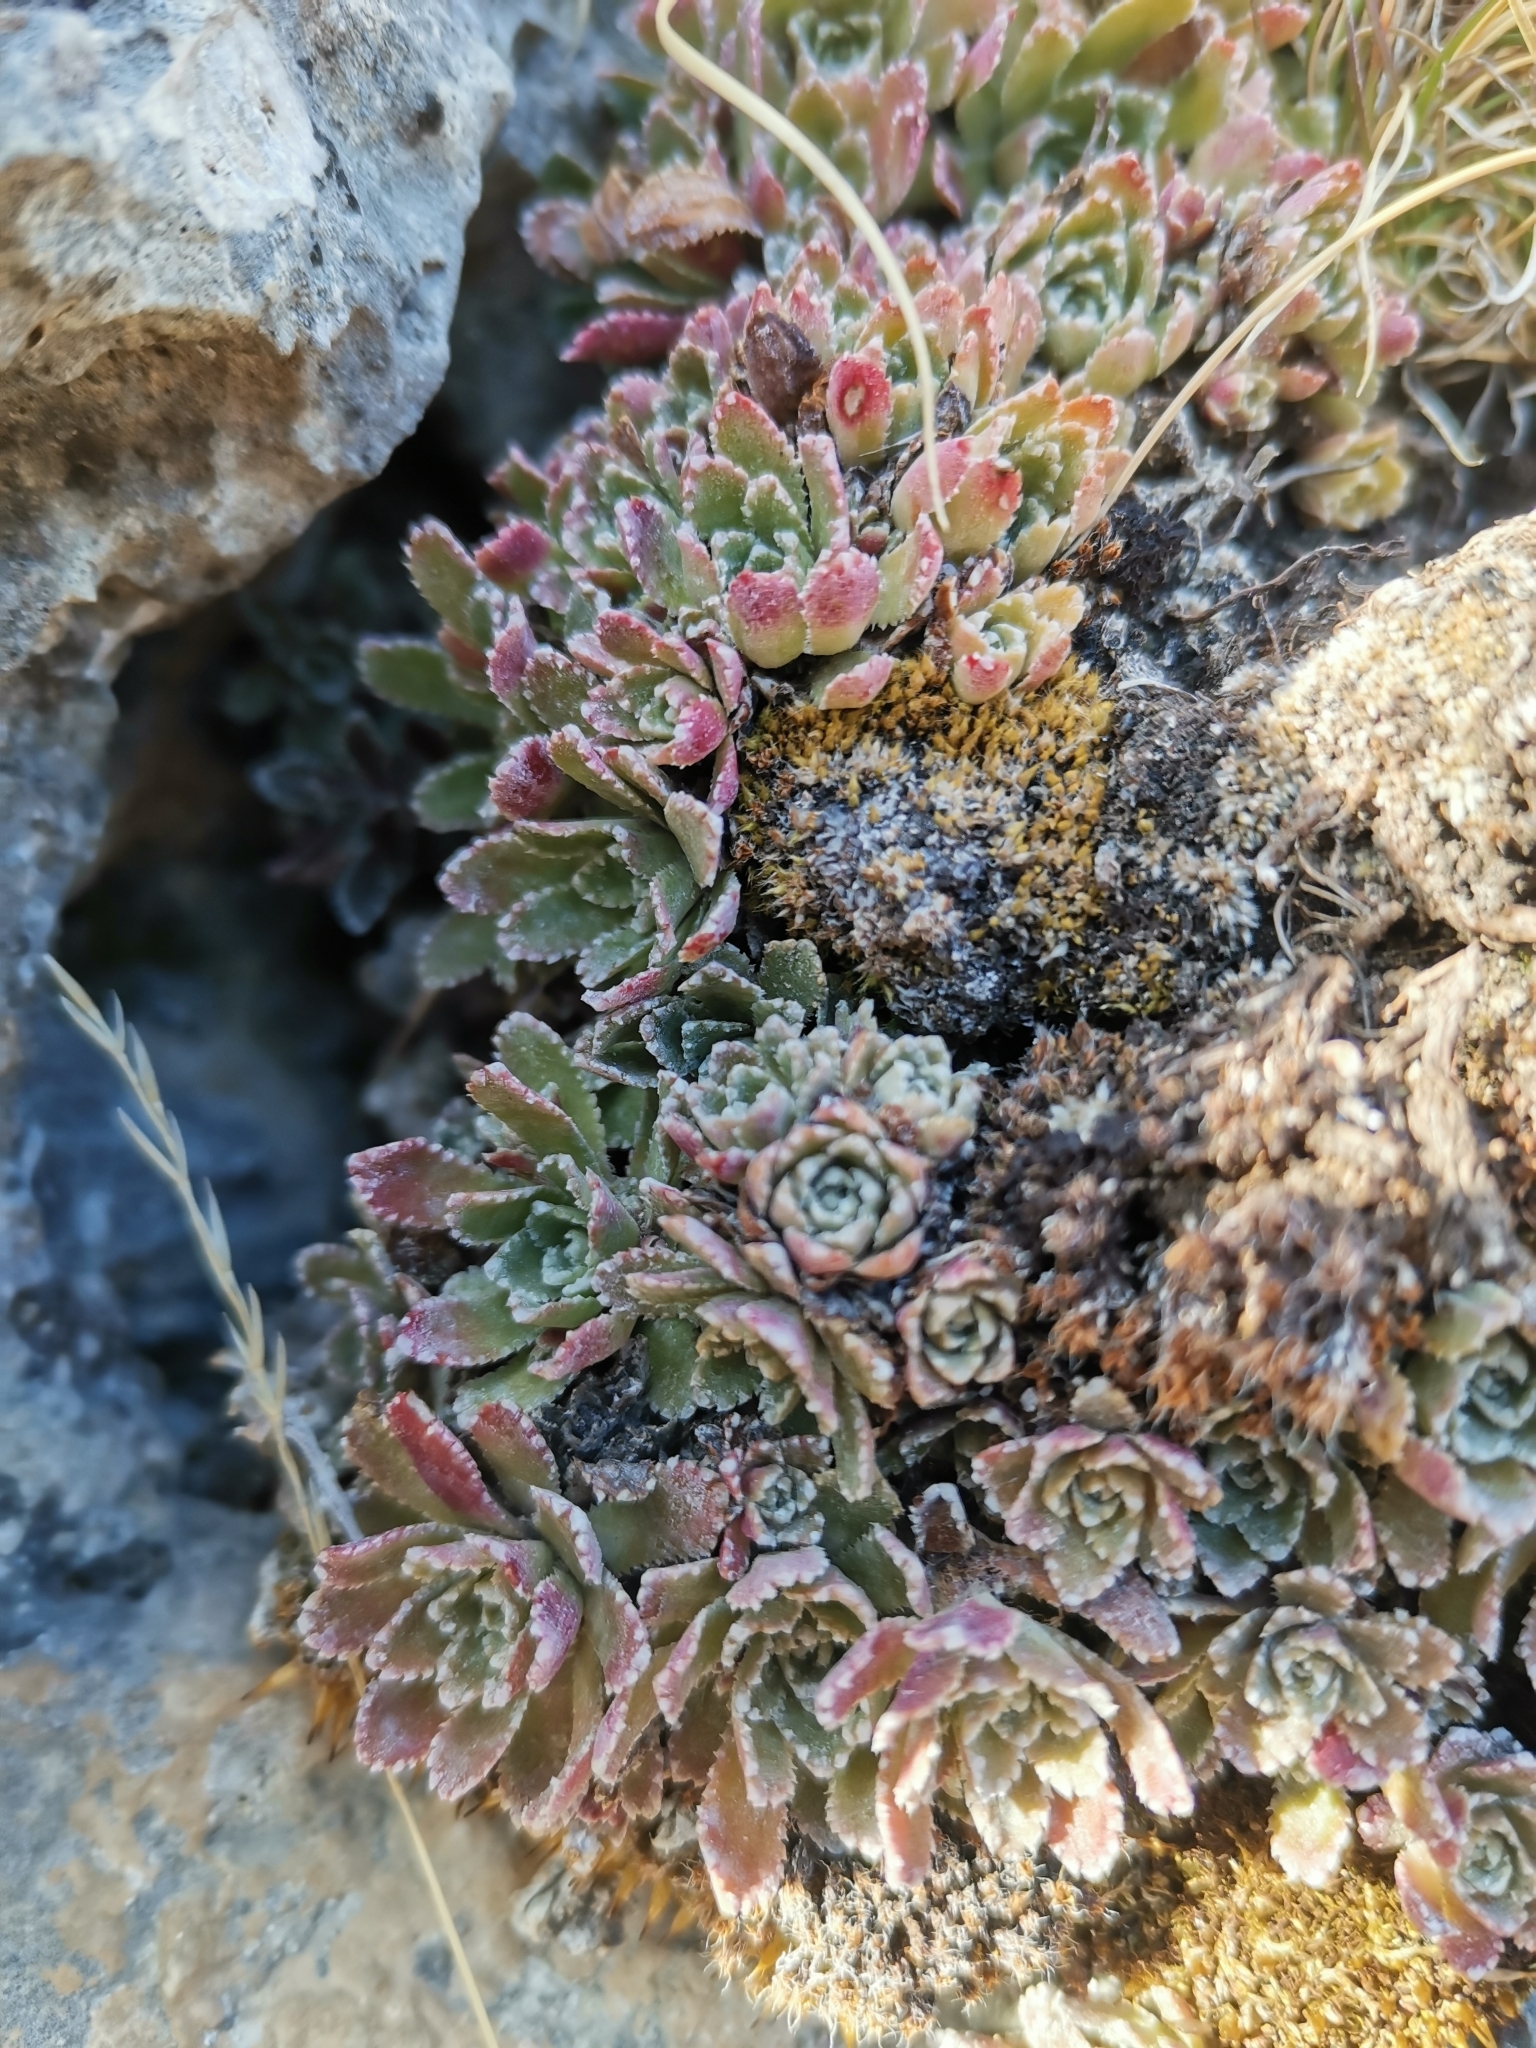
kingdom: Plantae
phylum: Tracheophyta
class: Magnoliopsida
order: Saxifragales
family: Saxifragaceae
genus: Saxifraga
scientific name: Saxifraga paniculata
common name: Livelong saxifrage
